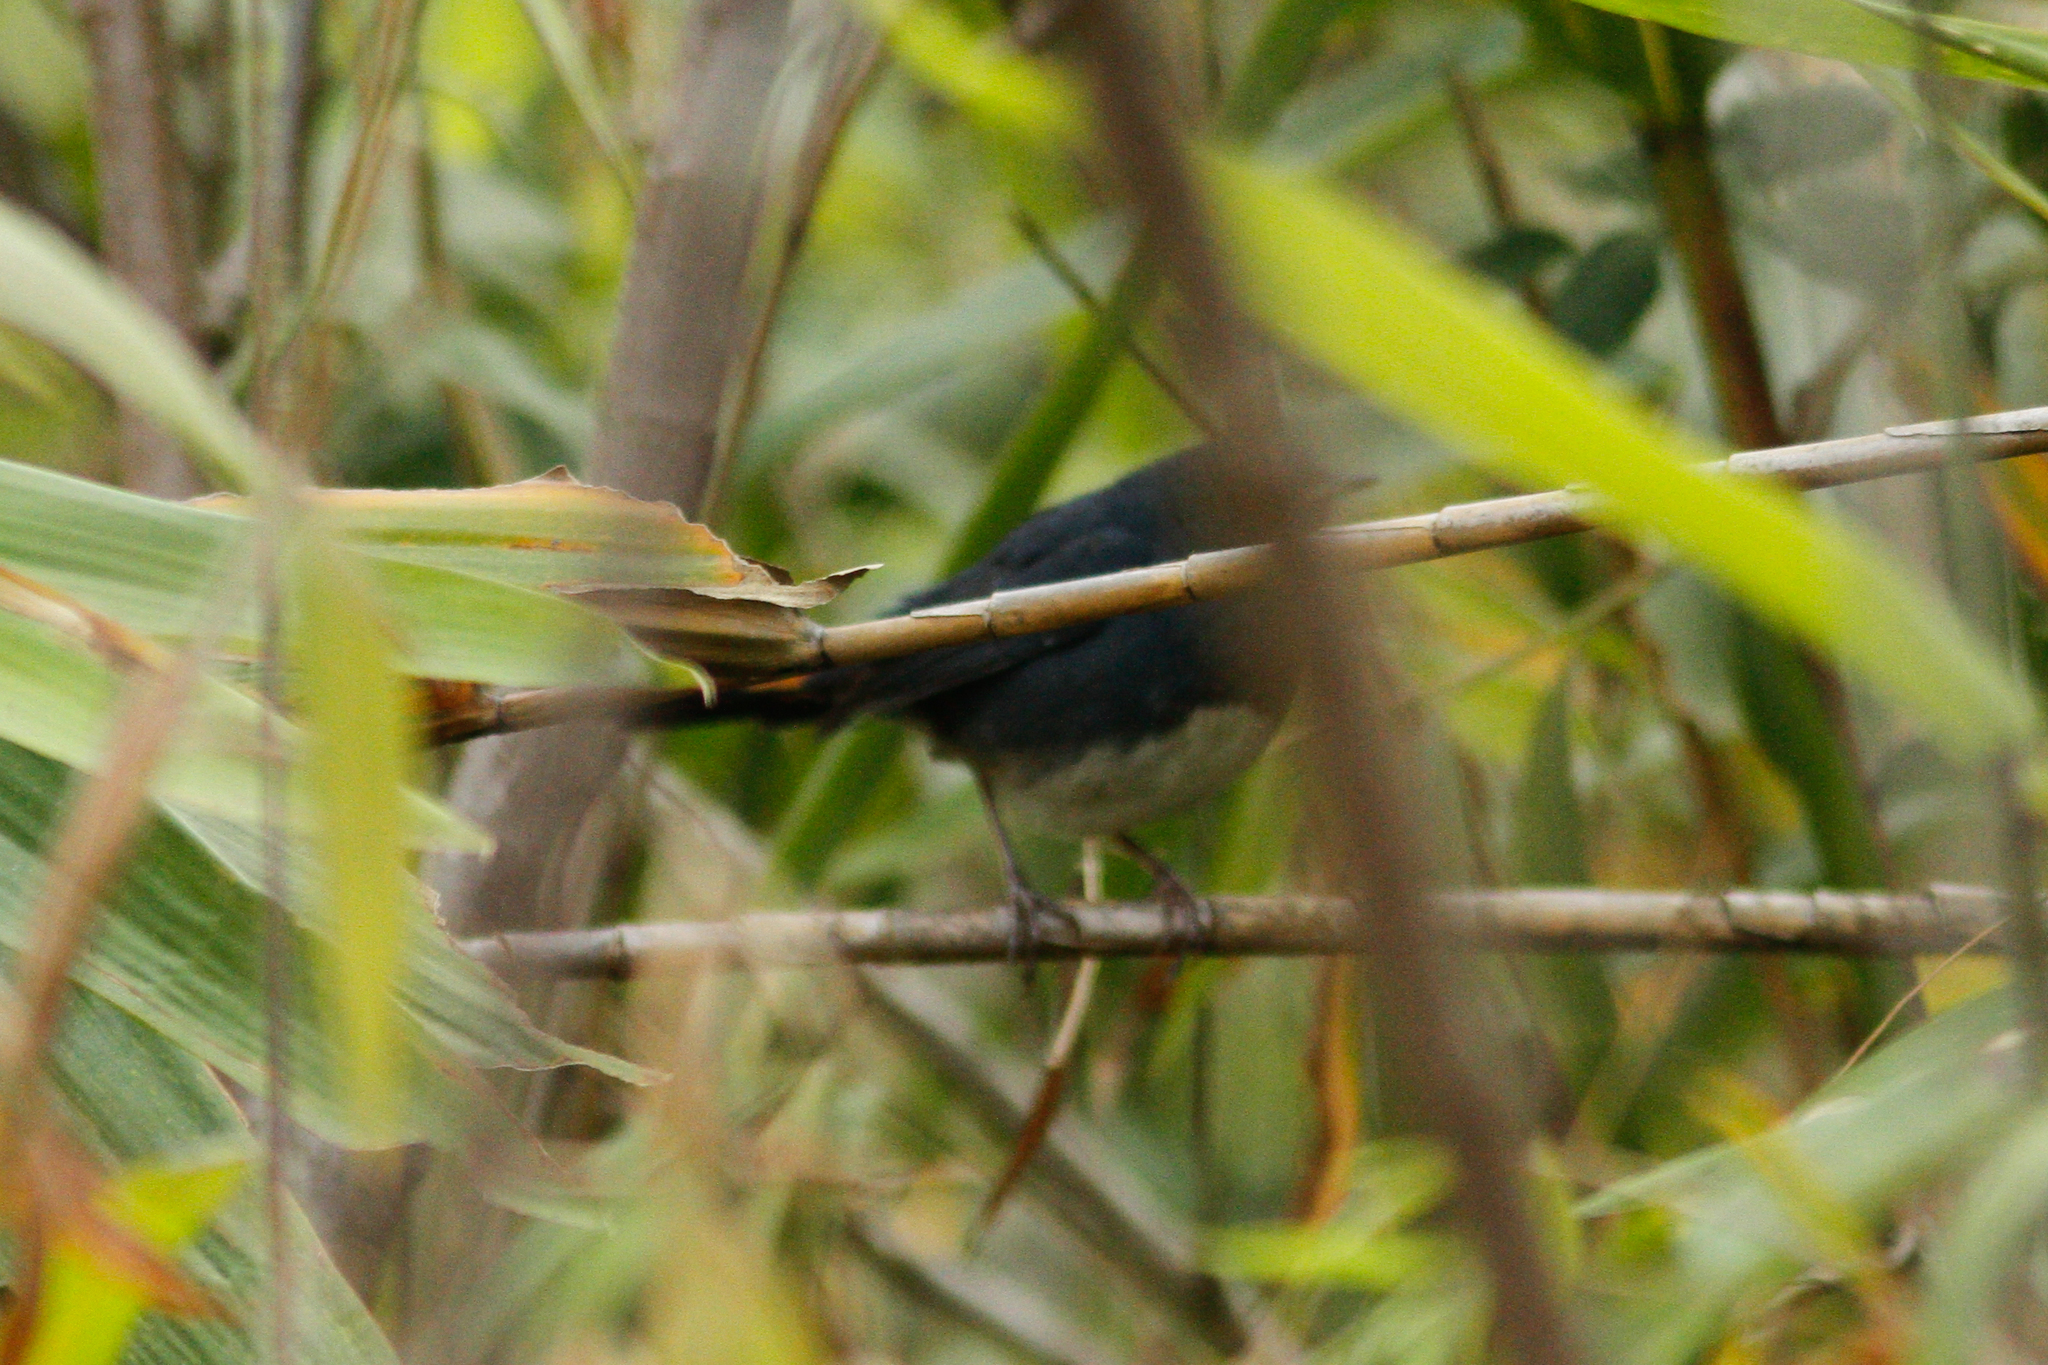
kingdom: Animalia
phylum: Chordata
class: Aves
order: Passeriformes
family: Muscicapidae
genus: Hodgsonius
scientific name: Hodgsonius phoenicuroides
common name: White-bellied redstart
